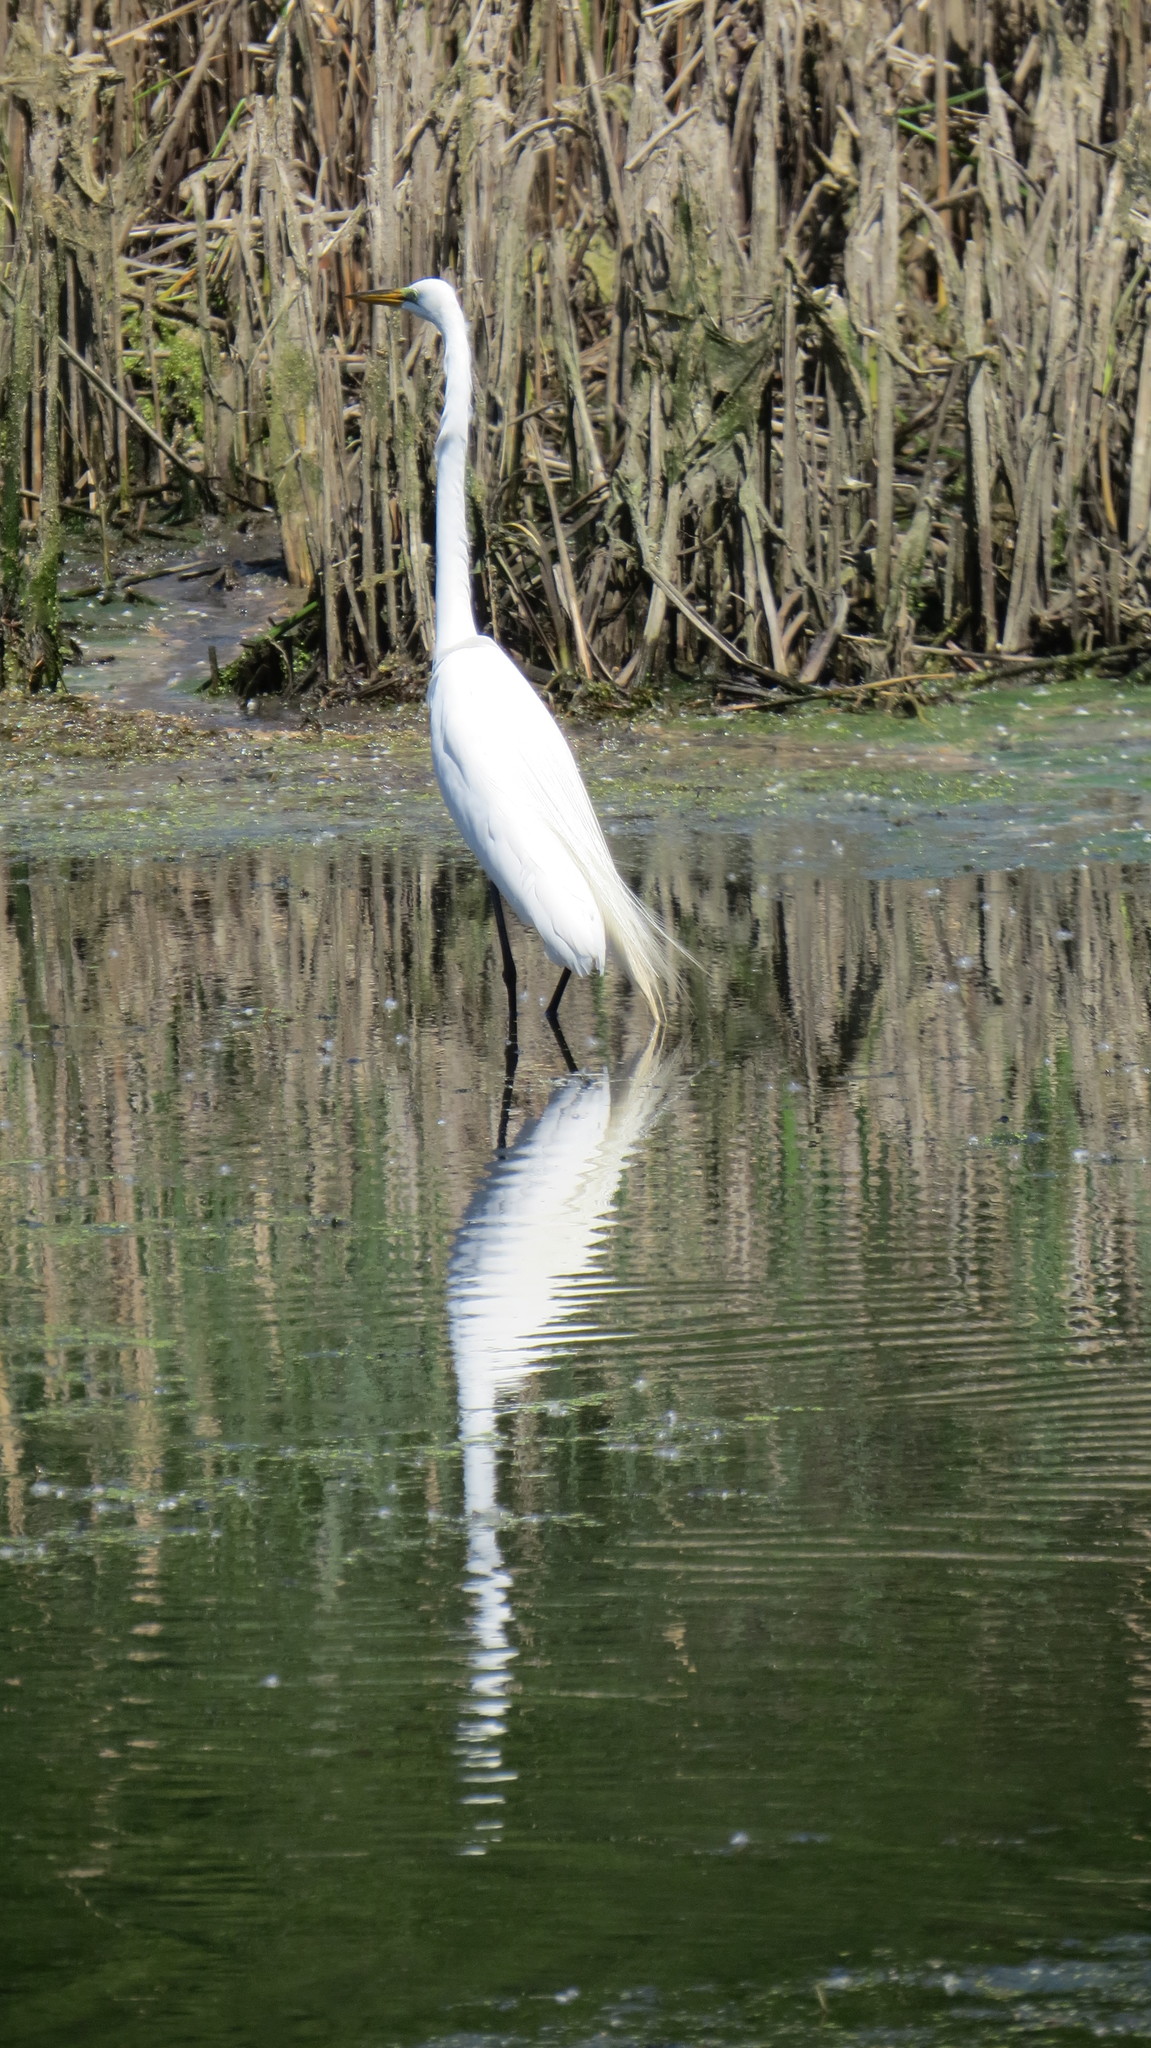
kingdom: Animalia
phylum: Chordata
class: Aves
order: Pelecaniformes
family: Ardeidae
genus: Ardea
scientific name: Ardea alba
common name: Great egret
